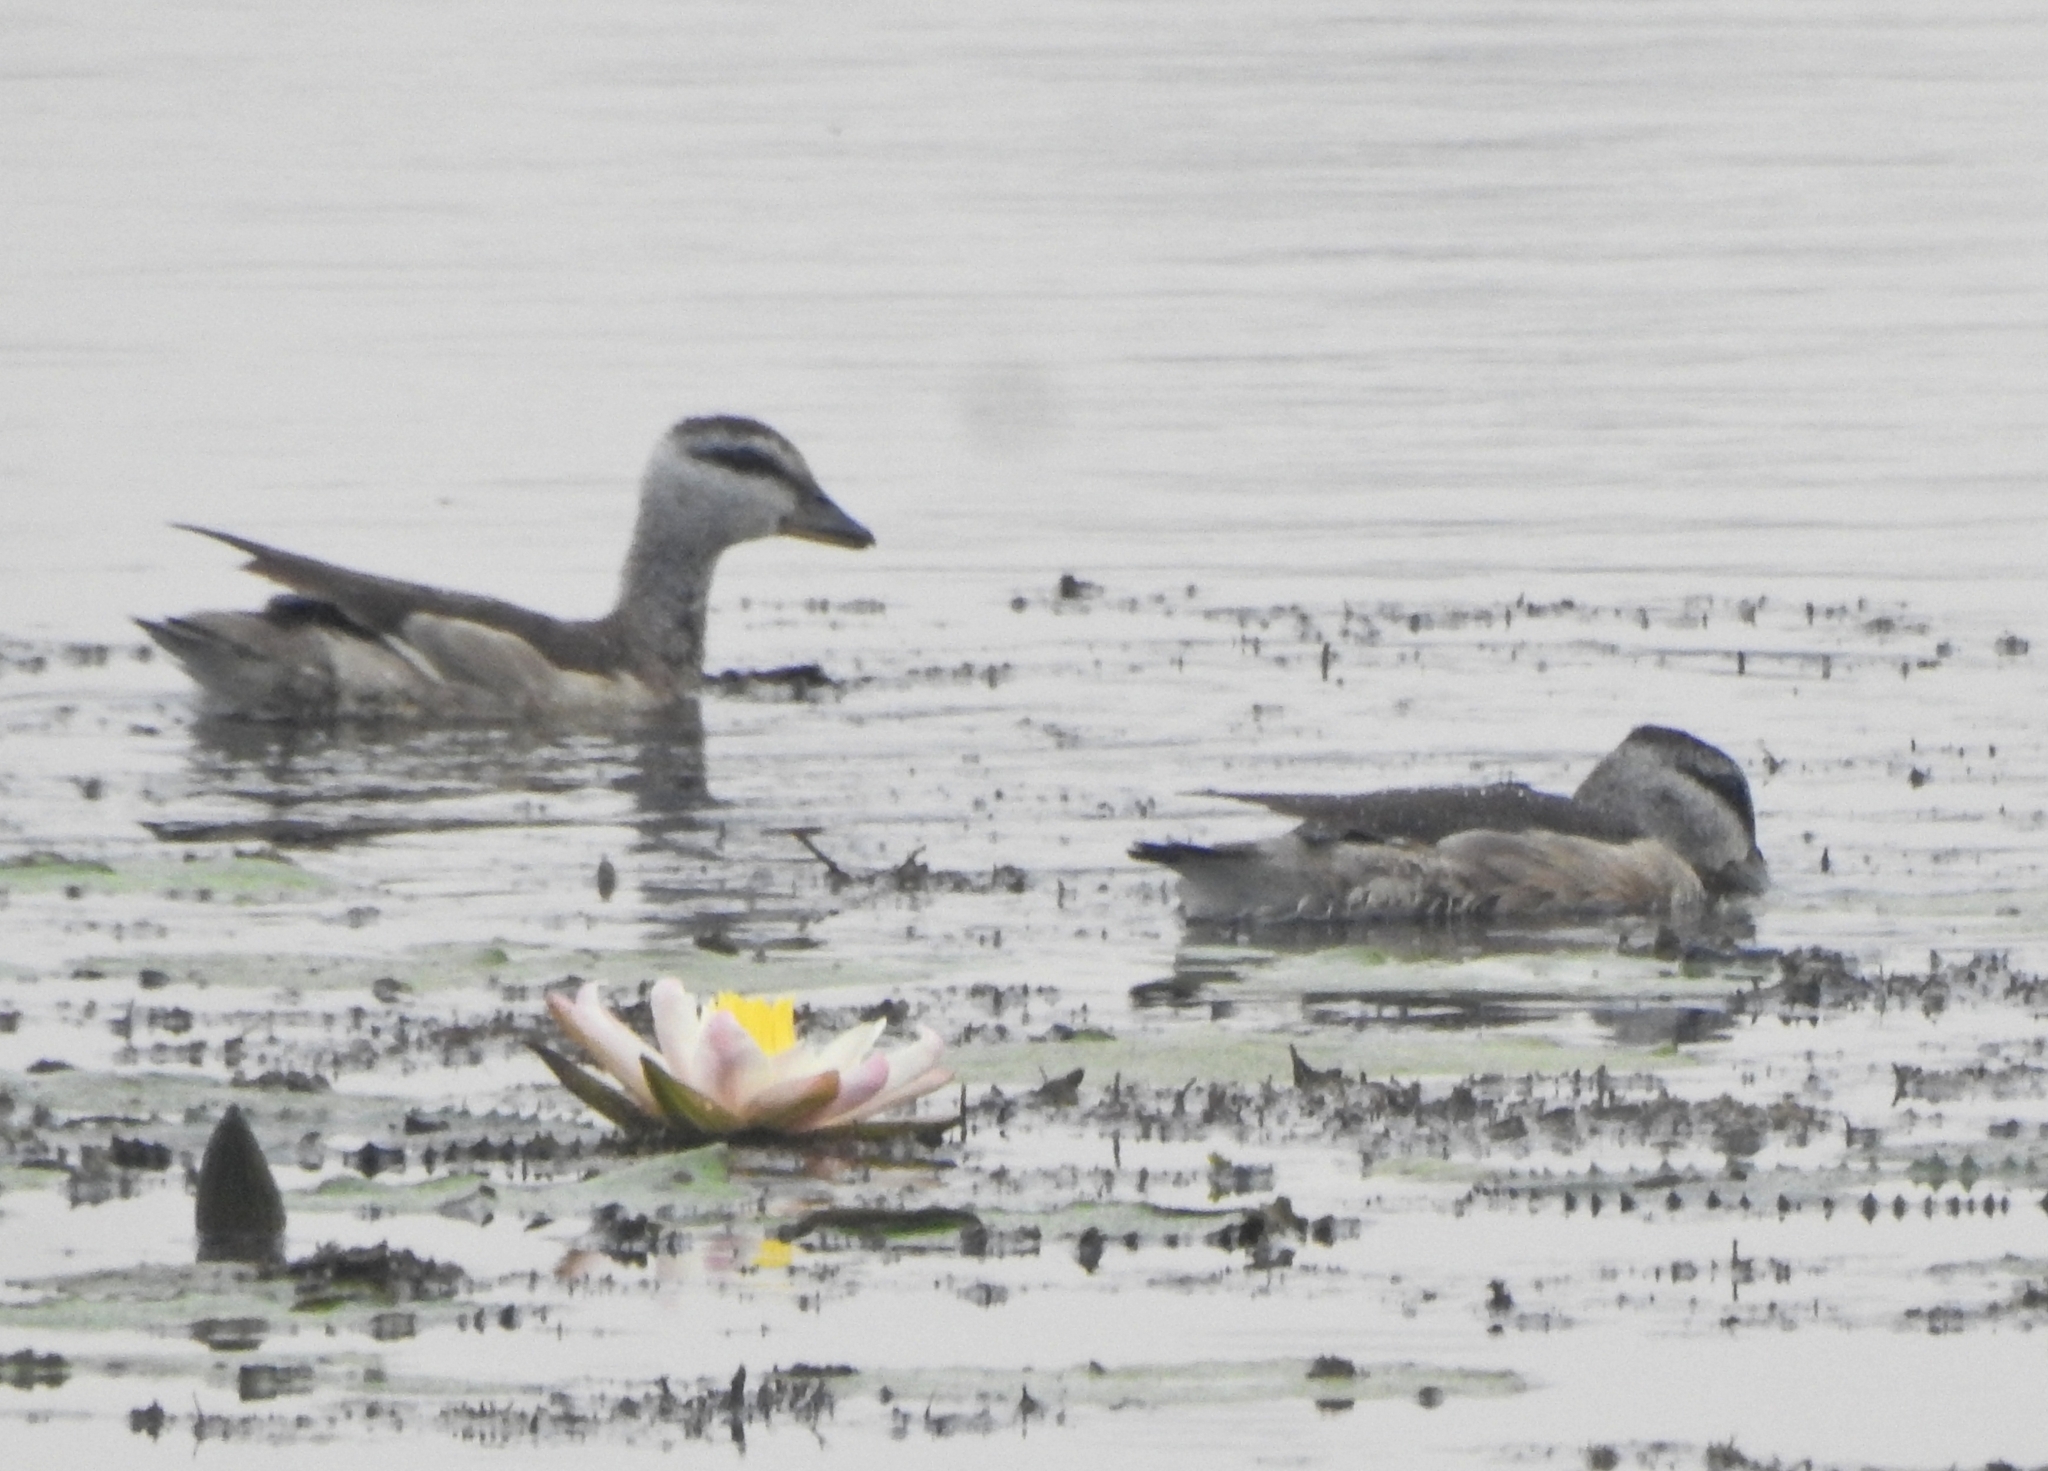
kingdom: Animalia
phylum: Chordata
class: Aves
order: Anseriformes
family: Anatidae
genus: Nettapus
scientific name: Nettapus coromandelianus
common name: Cotton pygmy-goose
